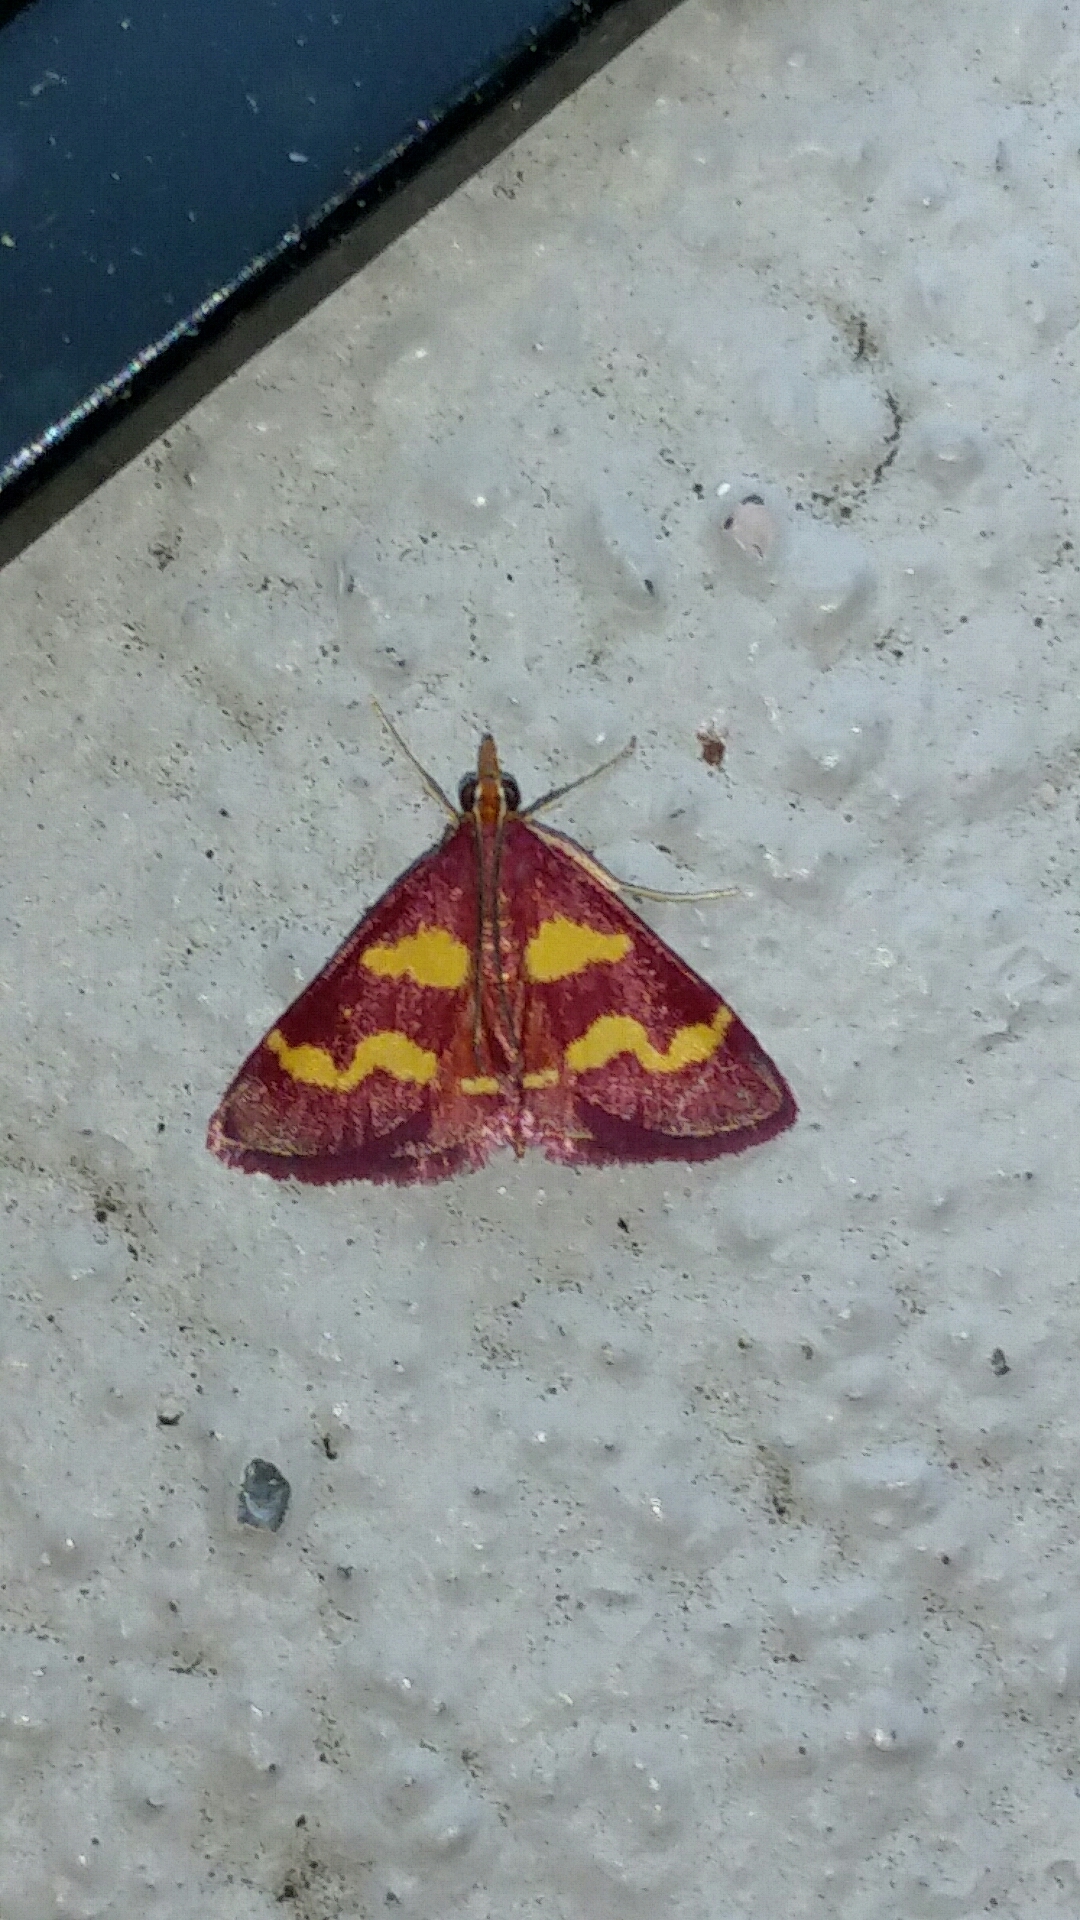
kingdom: Animalia
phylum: Arthropoda
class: Insecta
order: Lepidoptera
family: Crambidae
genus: Pyrausta
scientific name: Pyrausta tyralis
